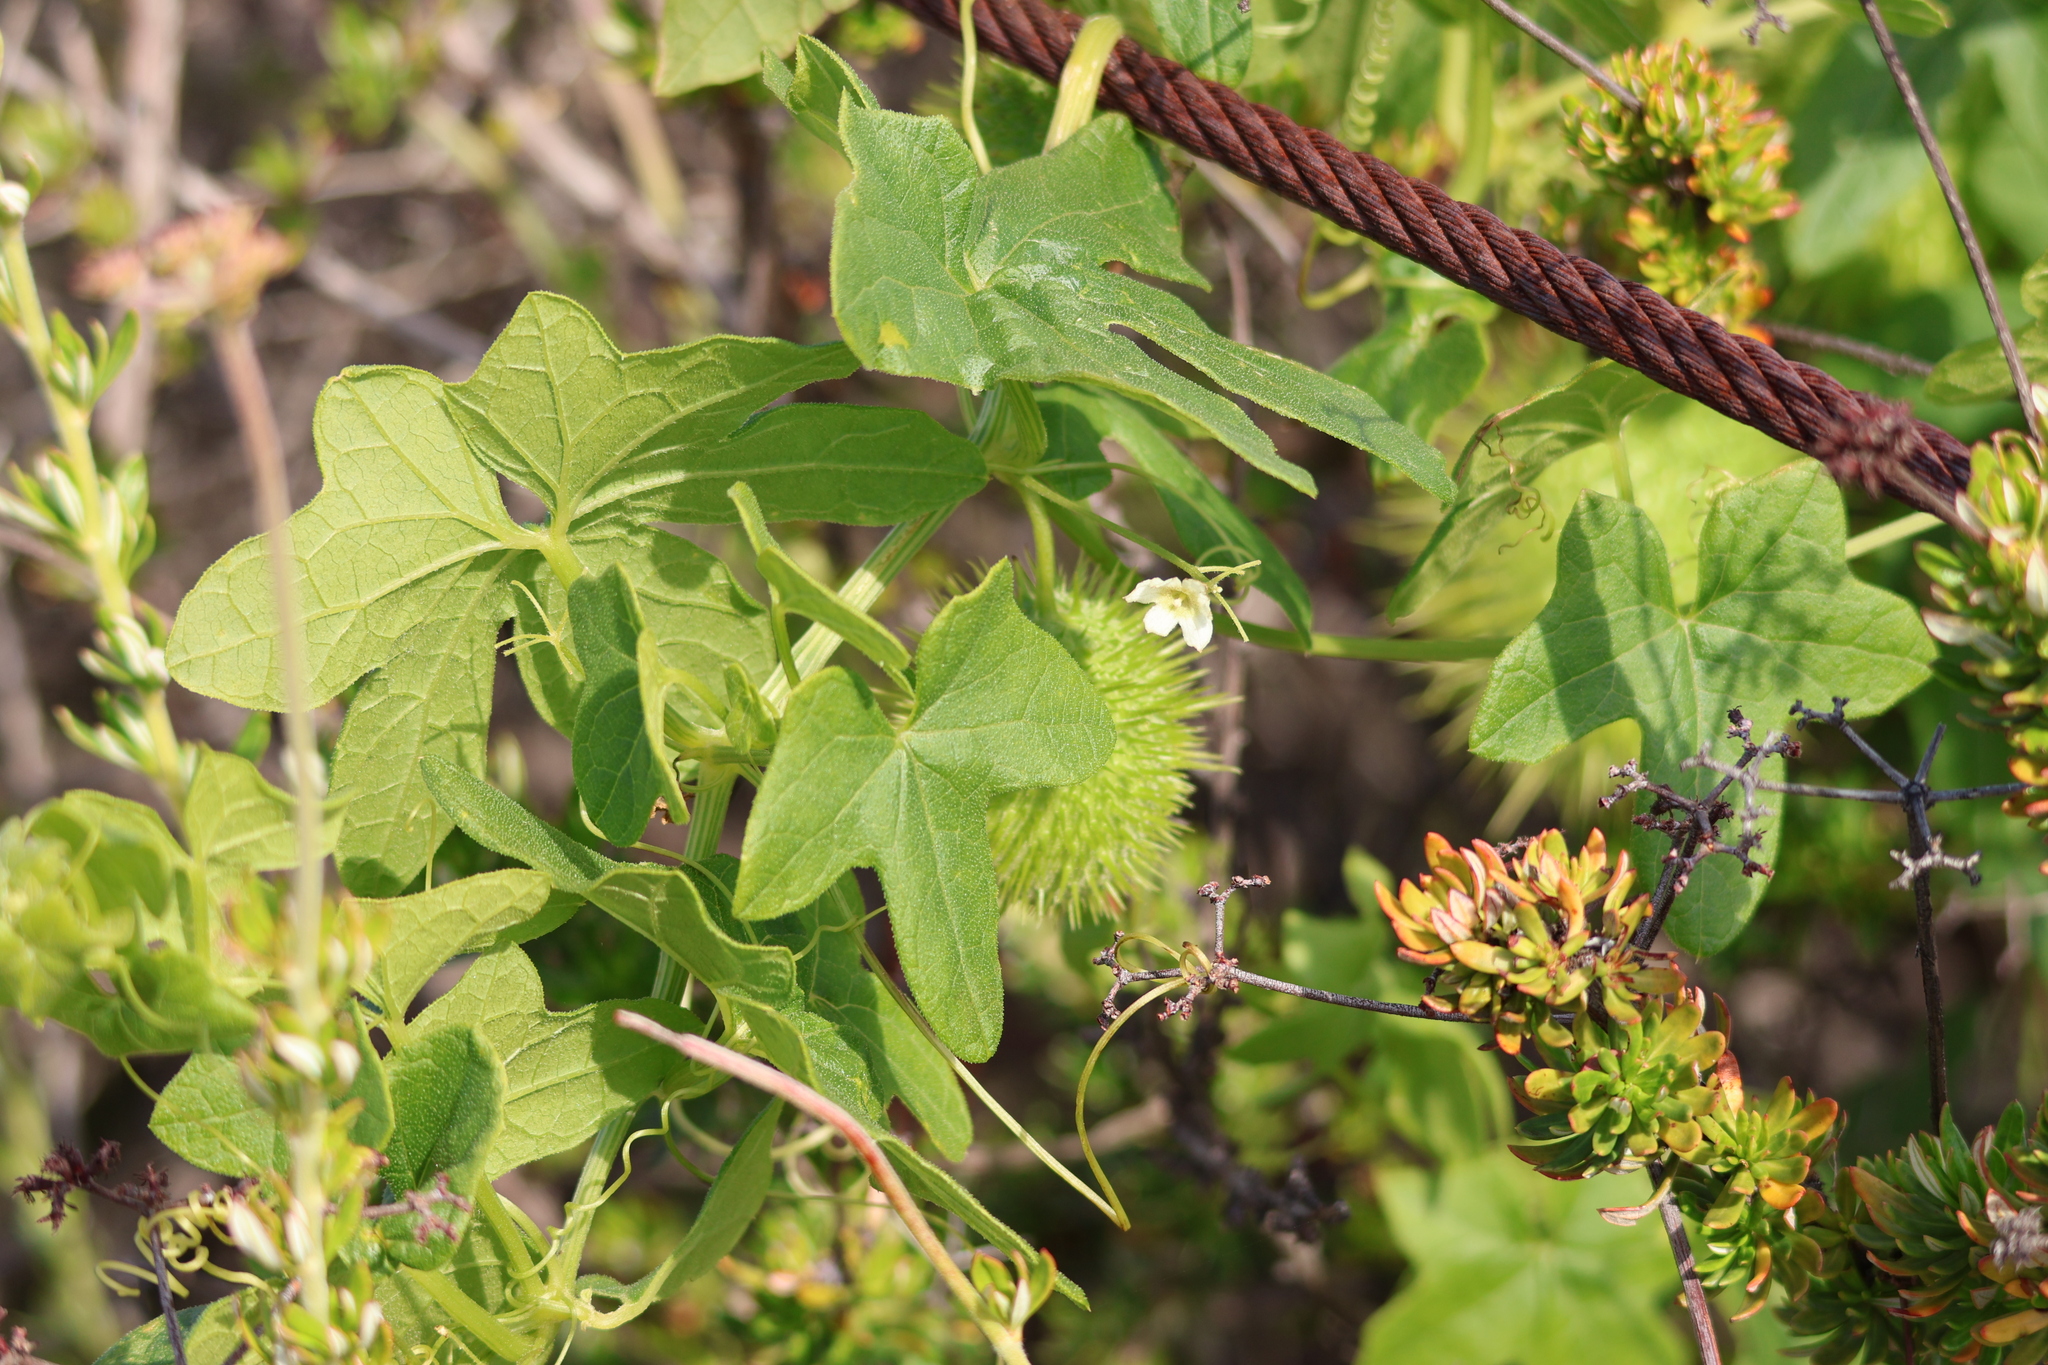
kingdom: Plantae
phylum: Tracheophyta
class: Magnoliopsida
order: Cucurbitales
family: Cucurbitaceae
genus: Marah
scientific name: Marah macrocarpa
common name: Cucamonga manroot
